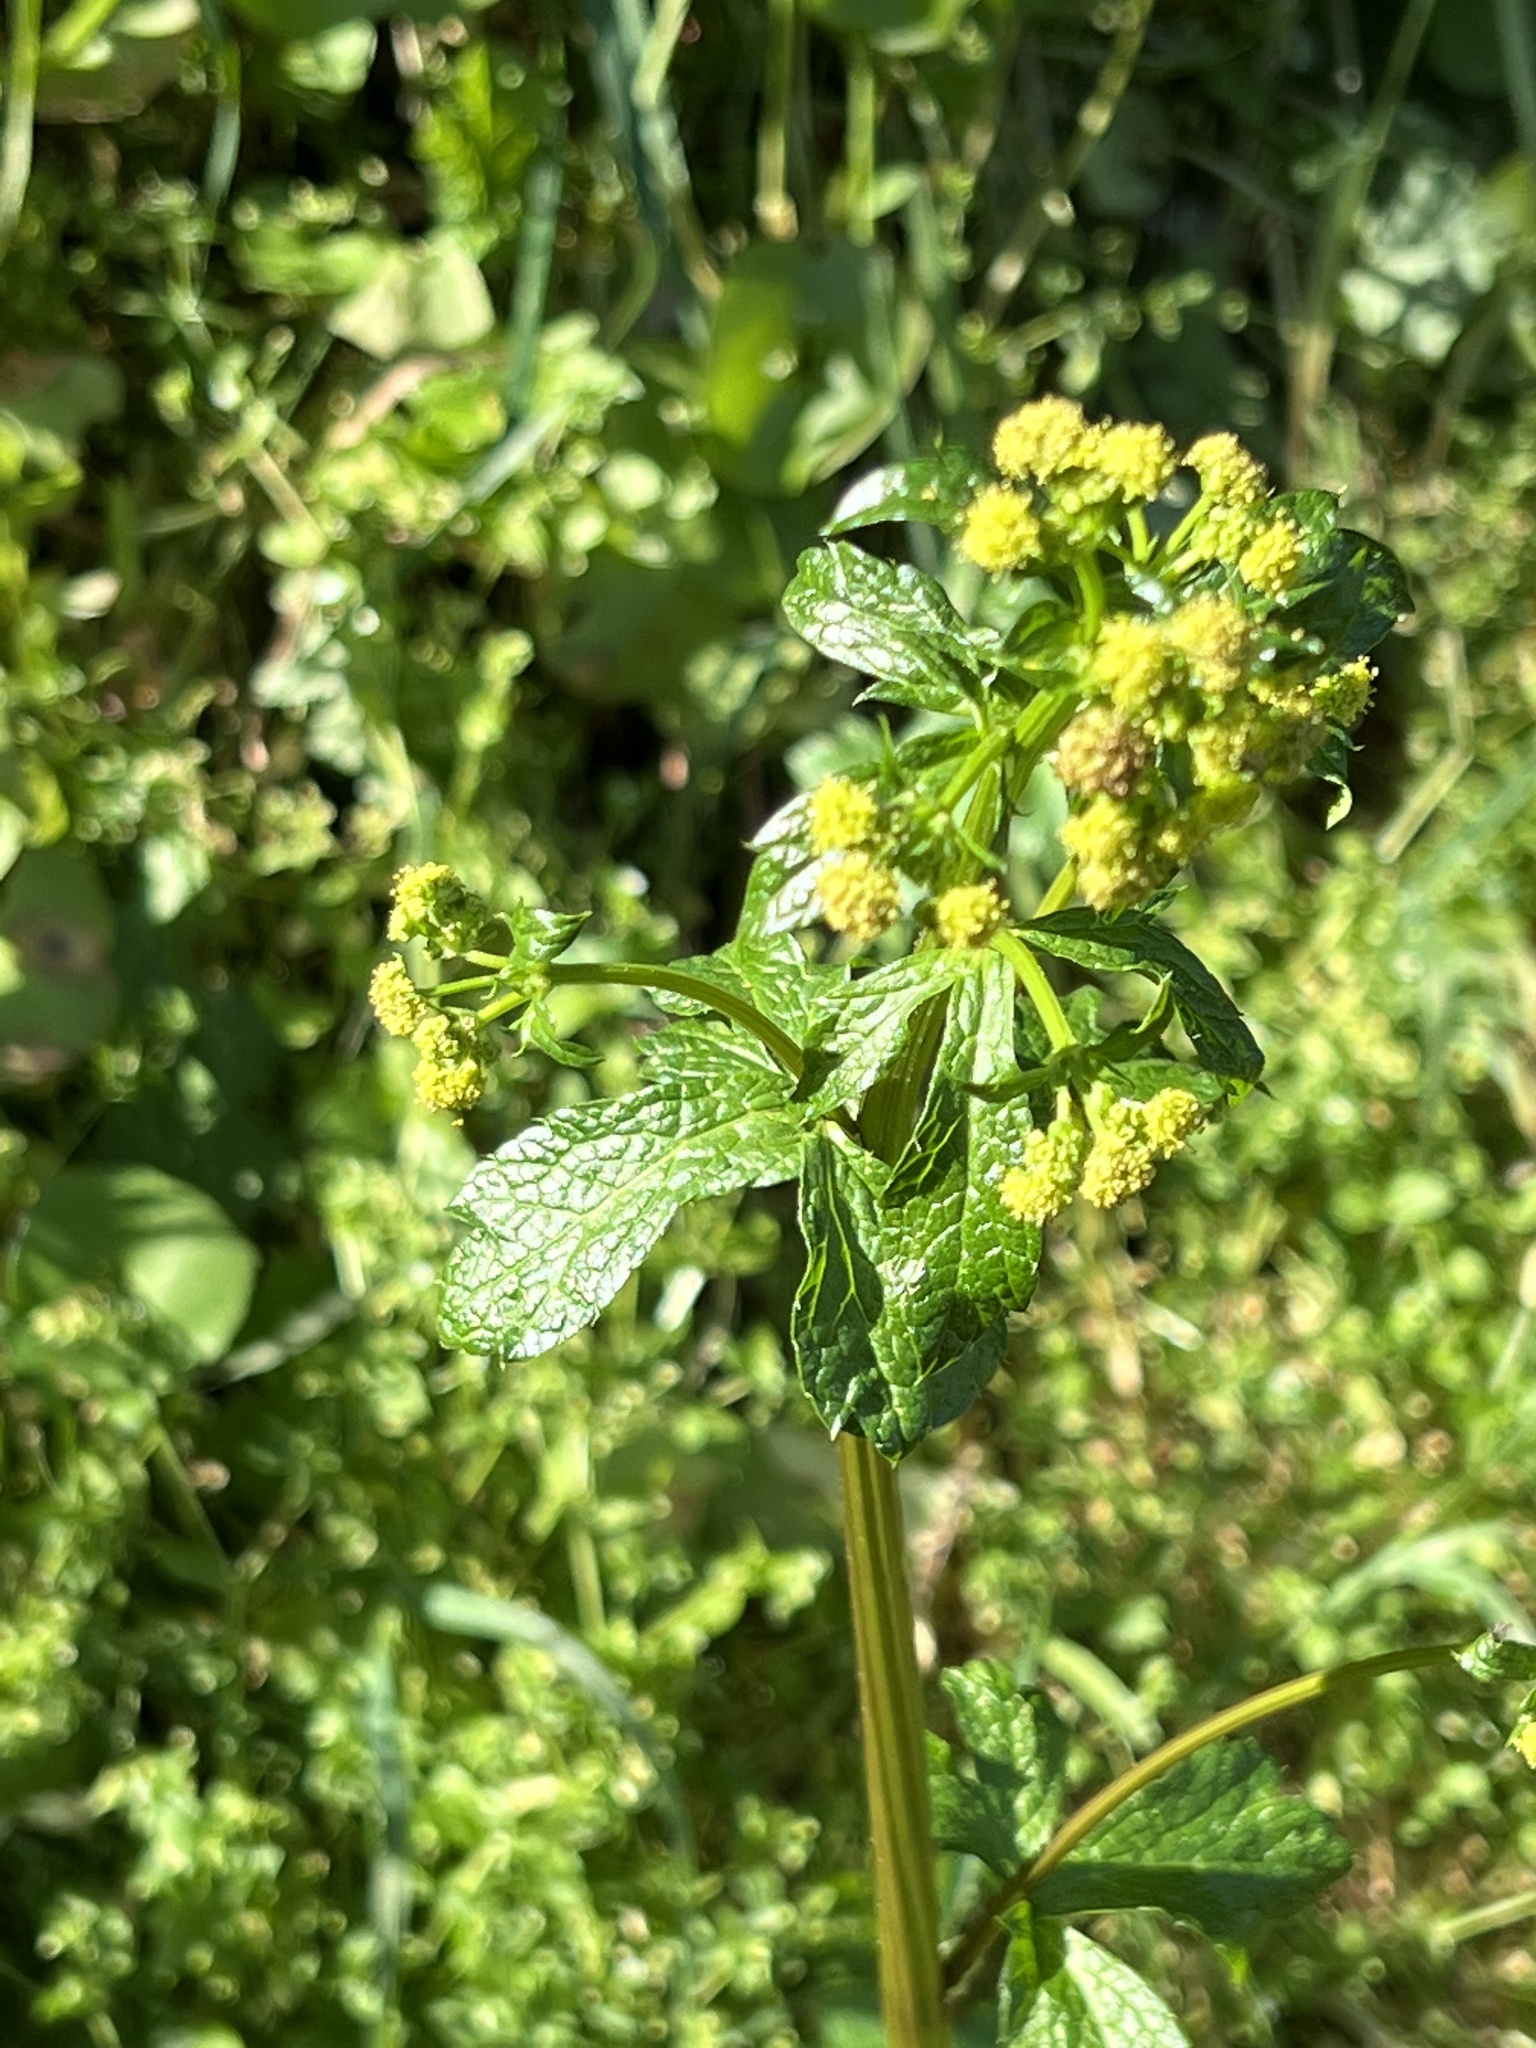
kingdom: Plantae
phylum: Tracheophyta
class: Magnoliopsida
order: Apiales
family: Apiaceae
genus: Sanicula
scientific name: Sanicula crassicaulis
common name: Western snakeroot
